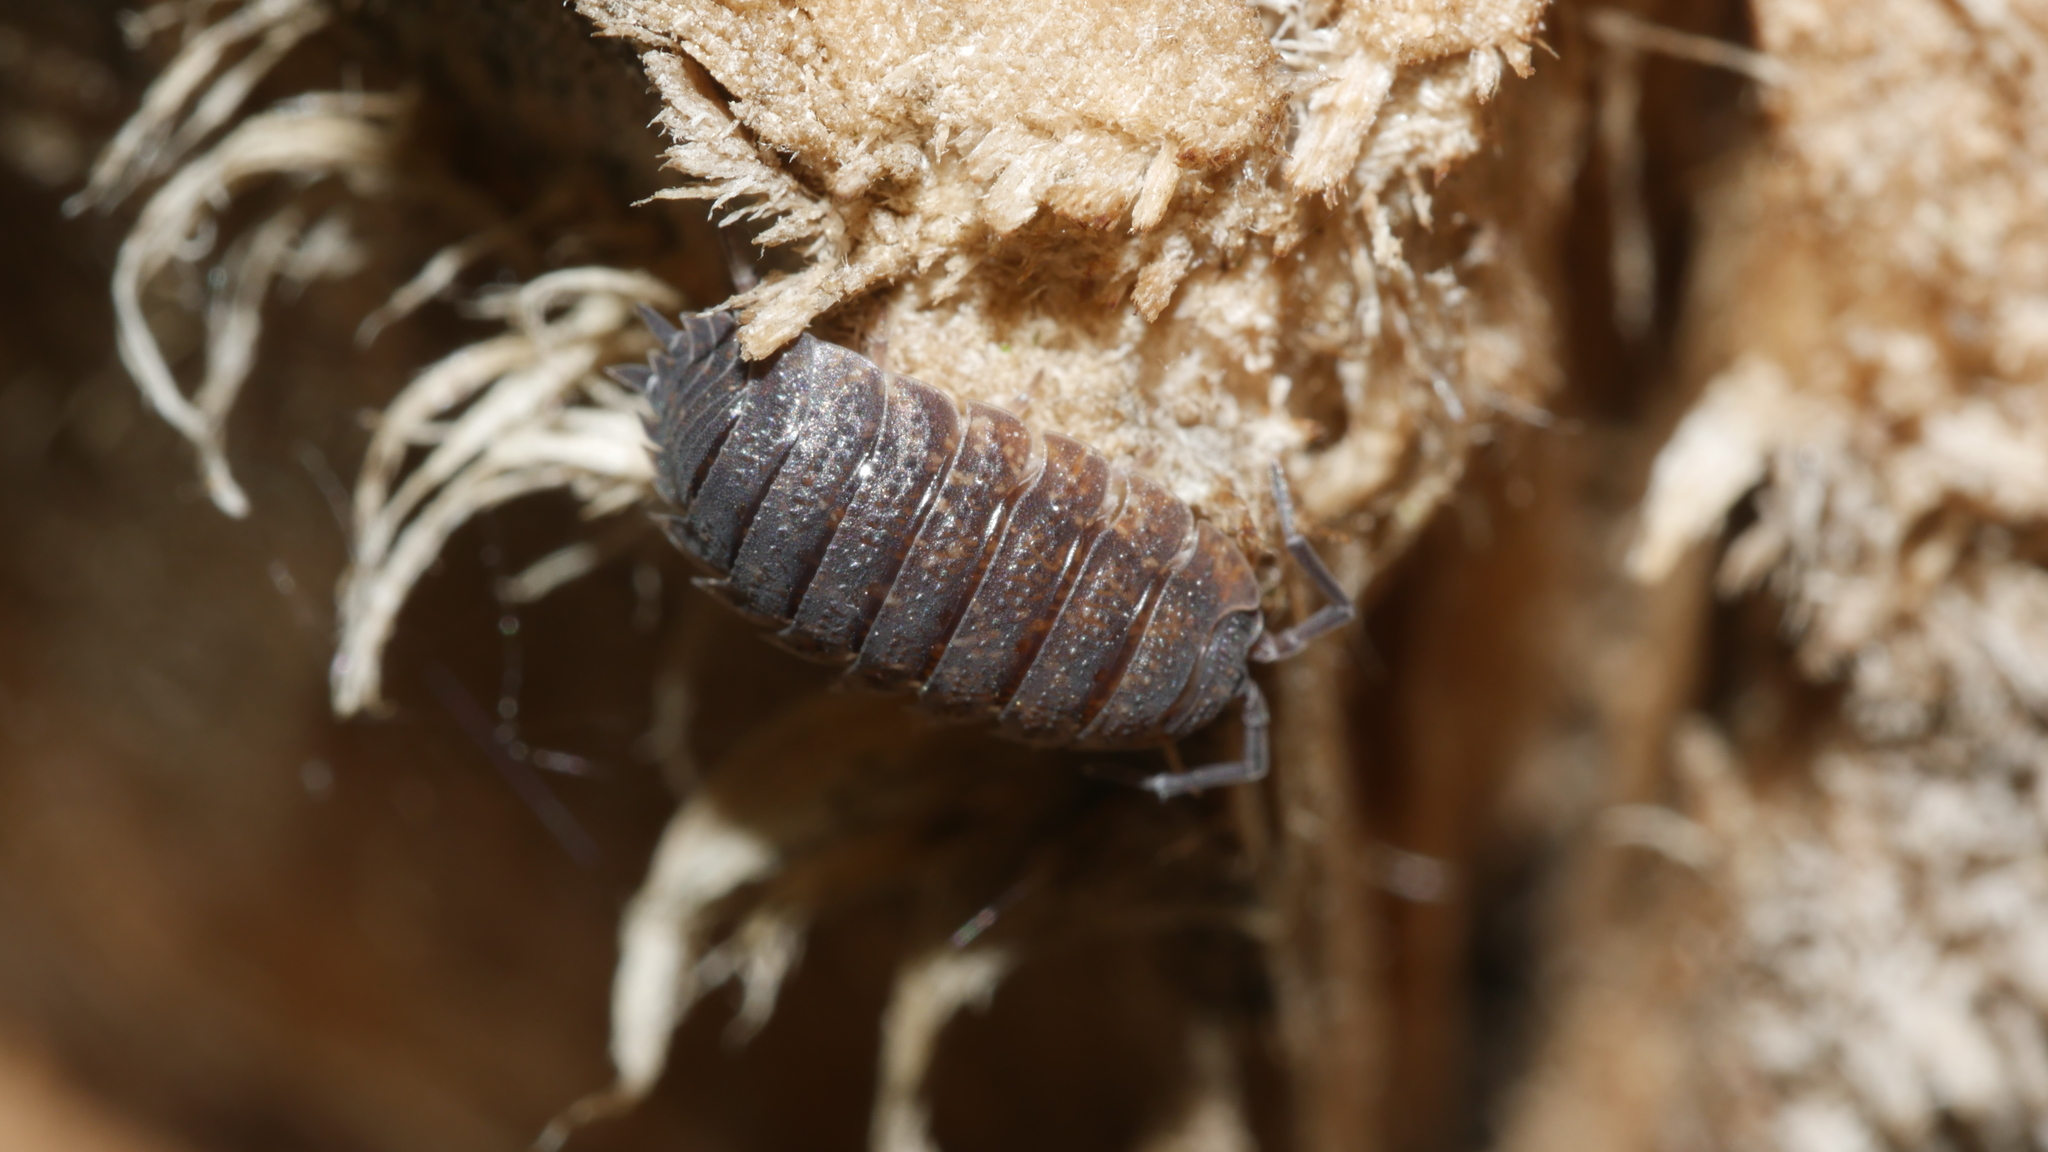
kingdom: Animalia
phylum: Arthropoda
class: Malacostraca
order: Isopoda
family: Porcellionidae
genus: Porcellio
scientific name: Porcellio scaber
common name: Common rough woodlouse
